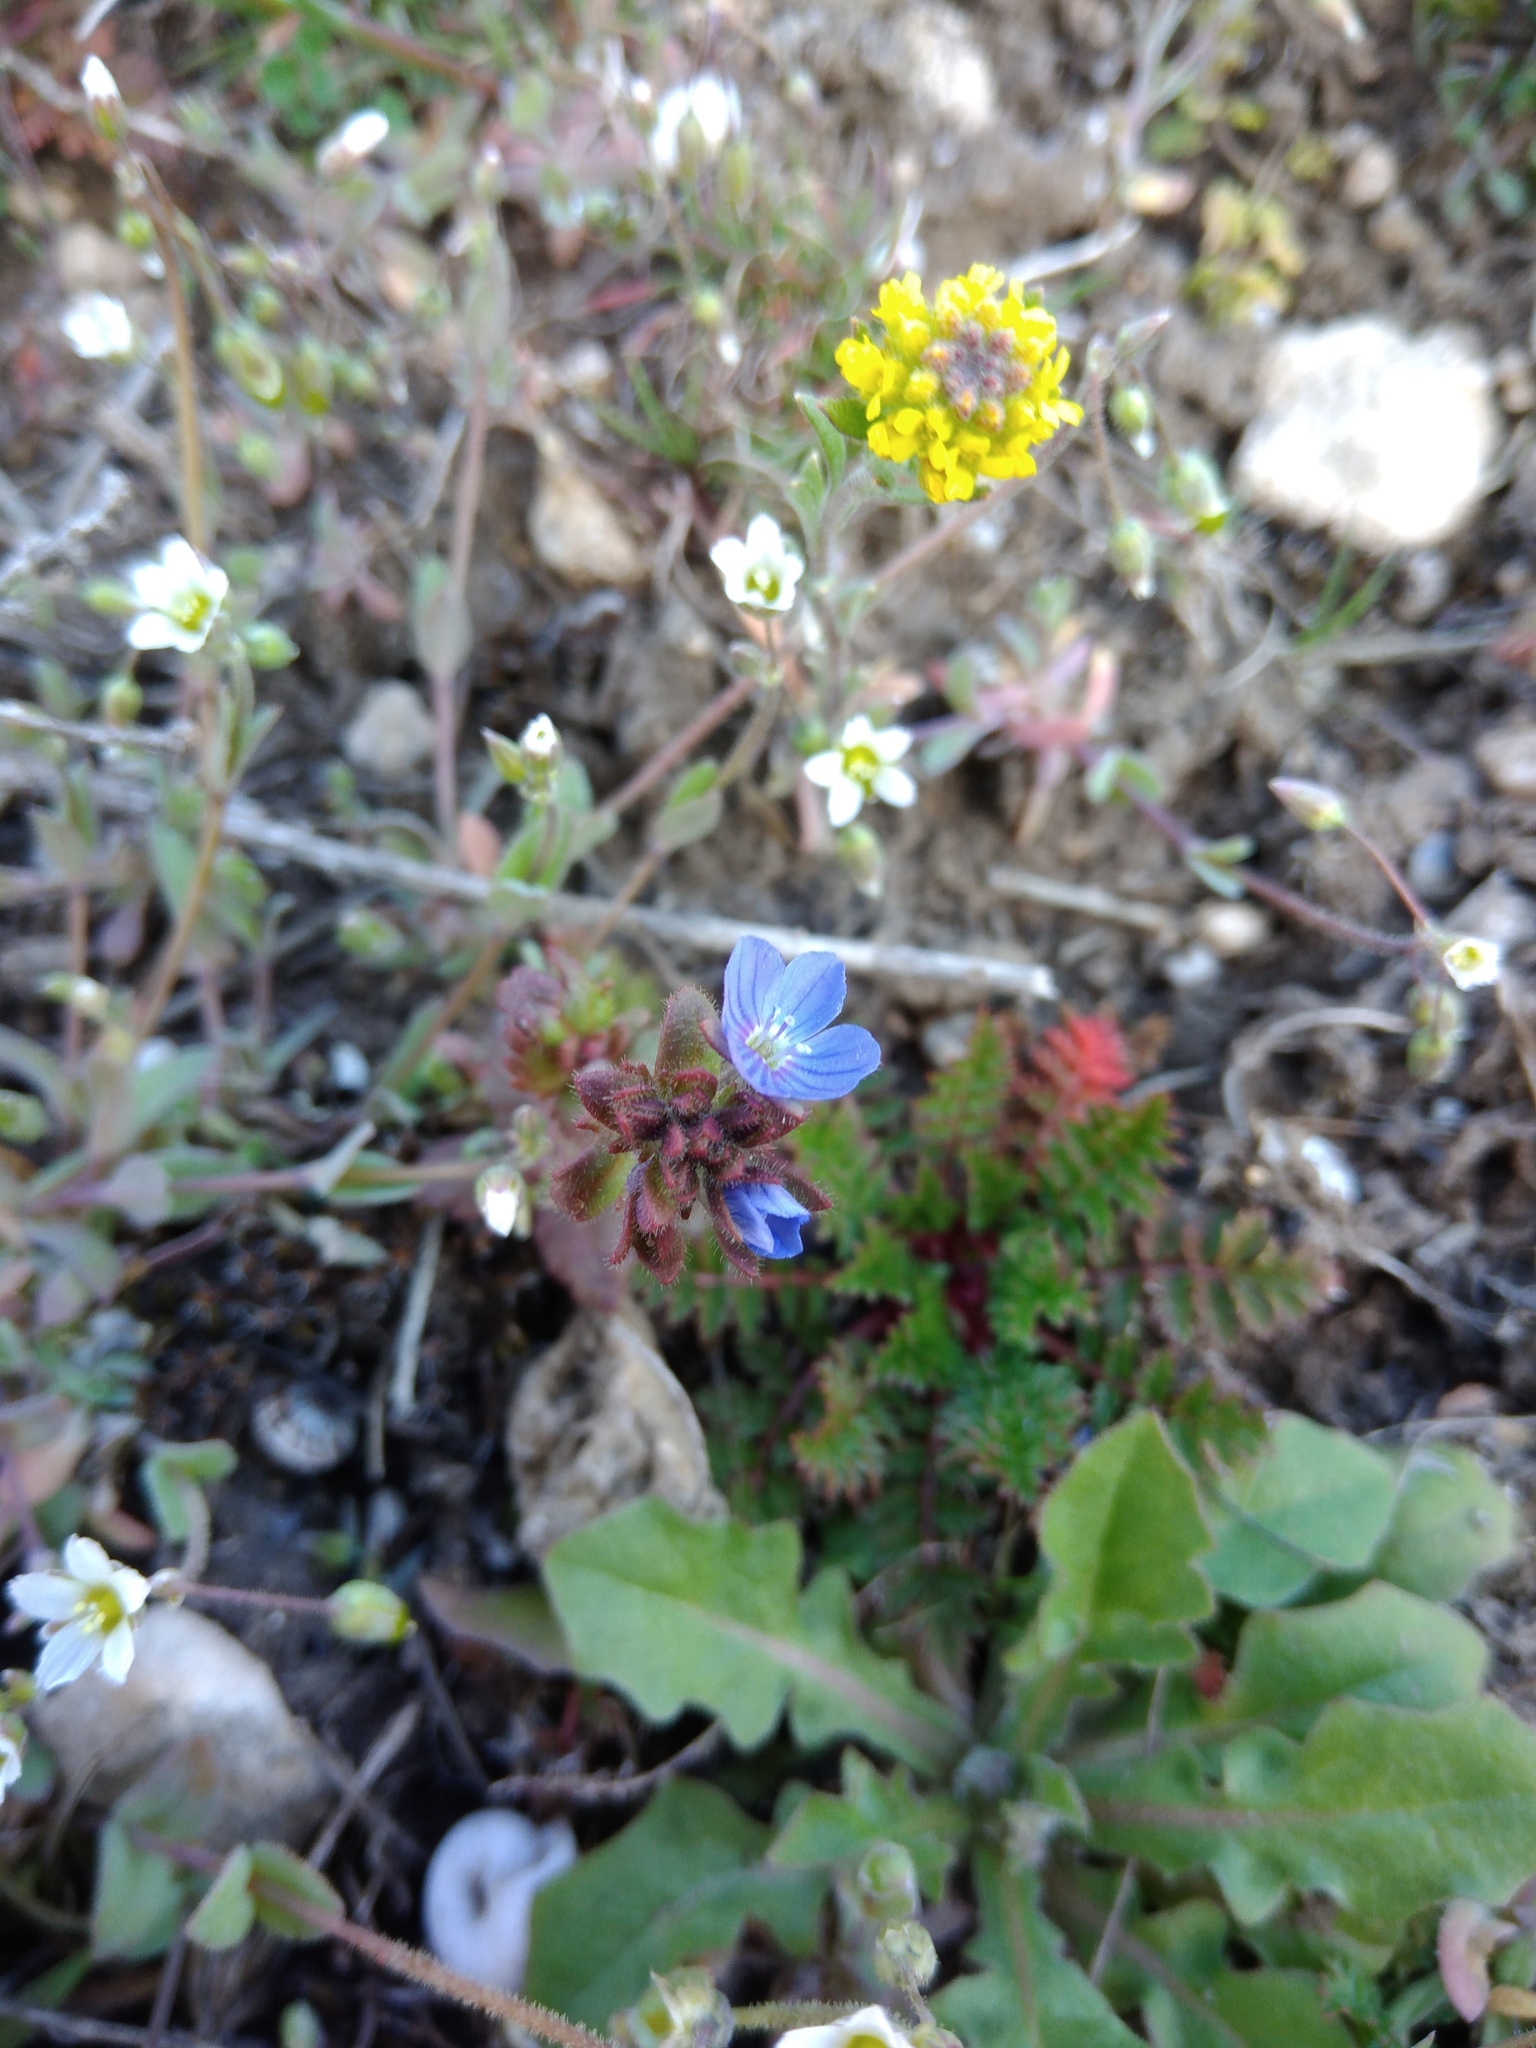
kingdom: Plantae
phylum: Tracheophyta
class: Magnoliopsida
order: Caryophyllales
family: Caryophyllaceae
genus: Holosteum
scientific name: Holosteum umbellatum
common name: Jagged chickweed
